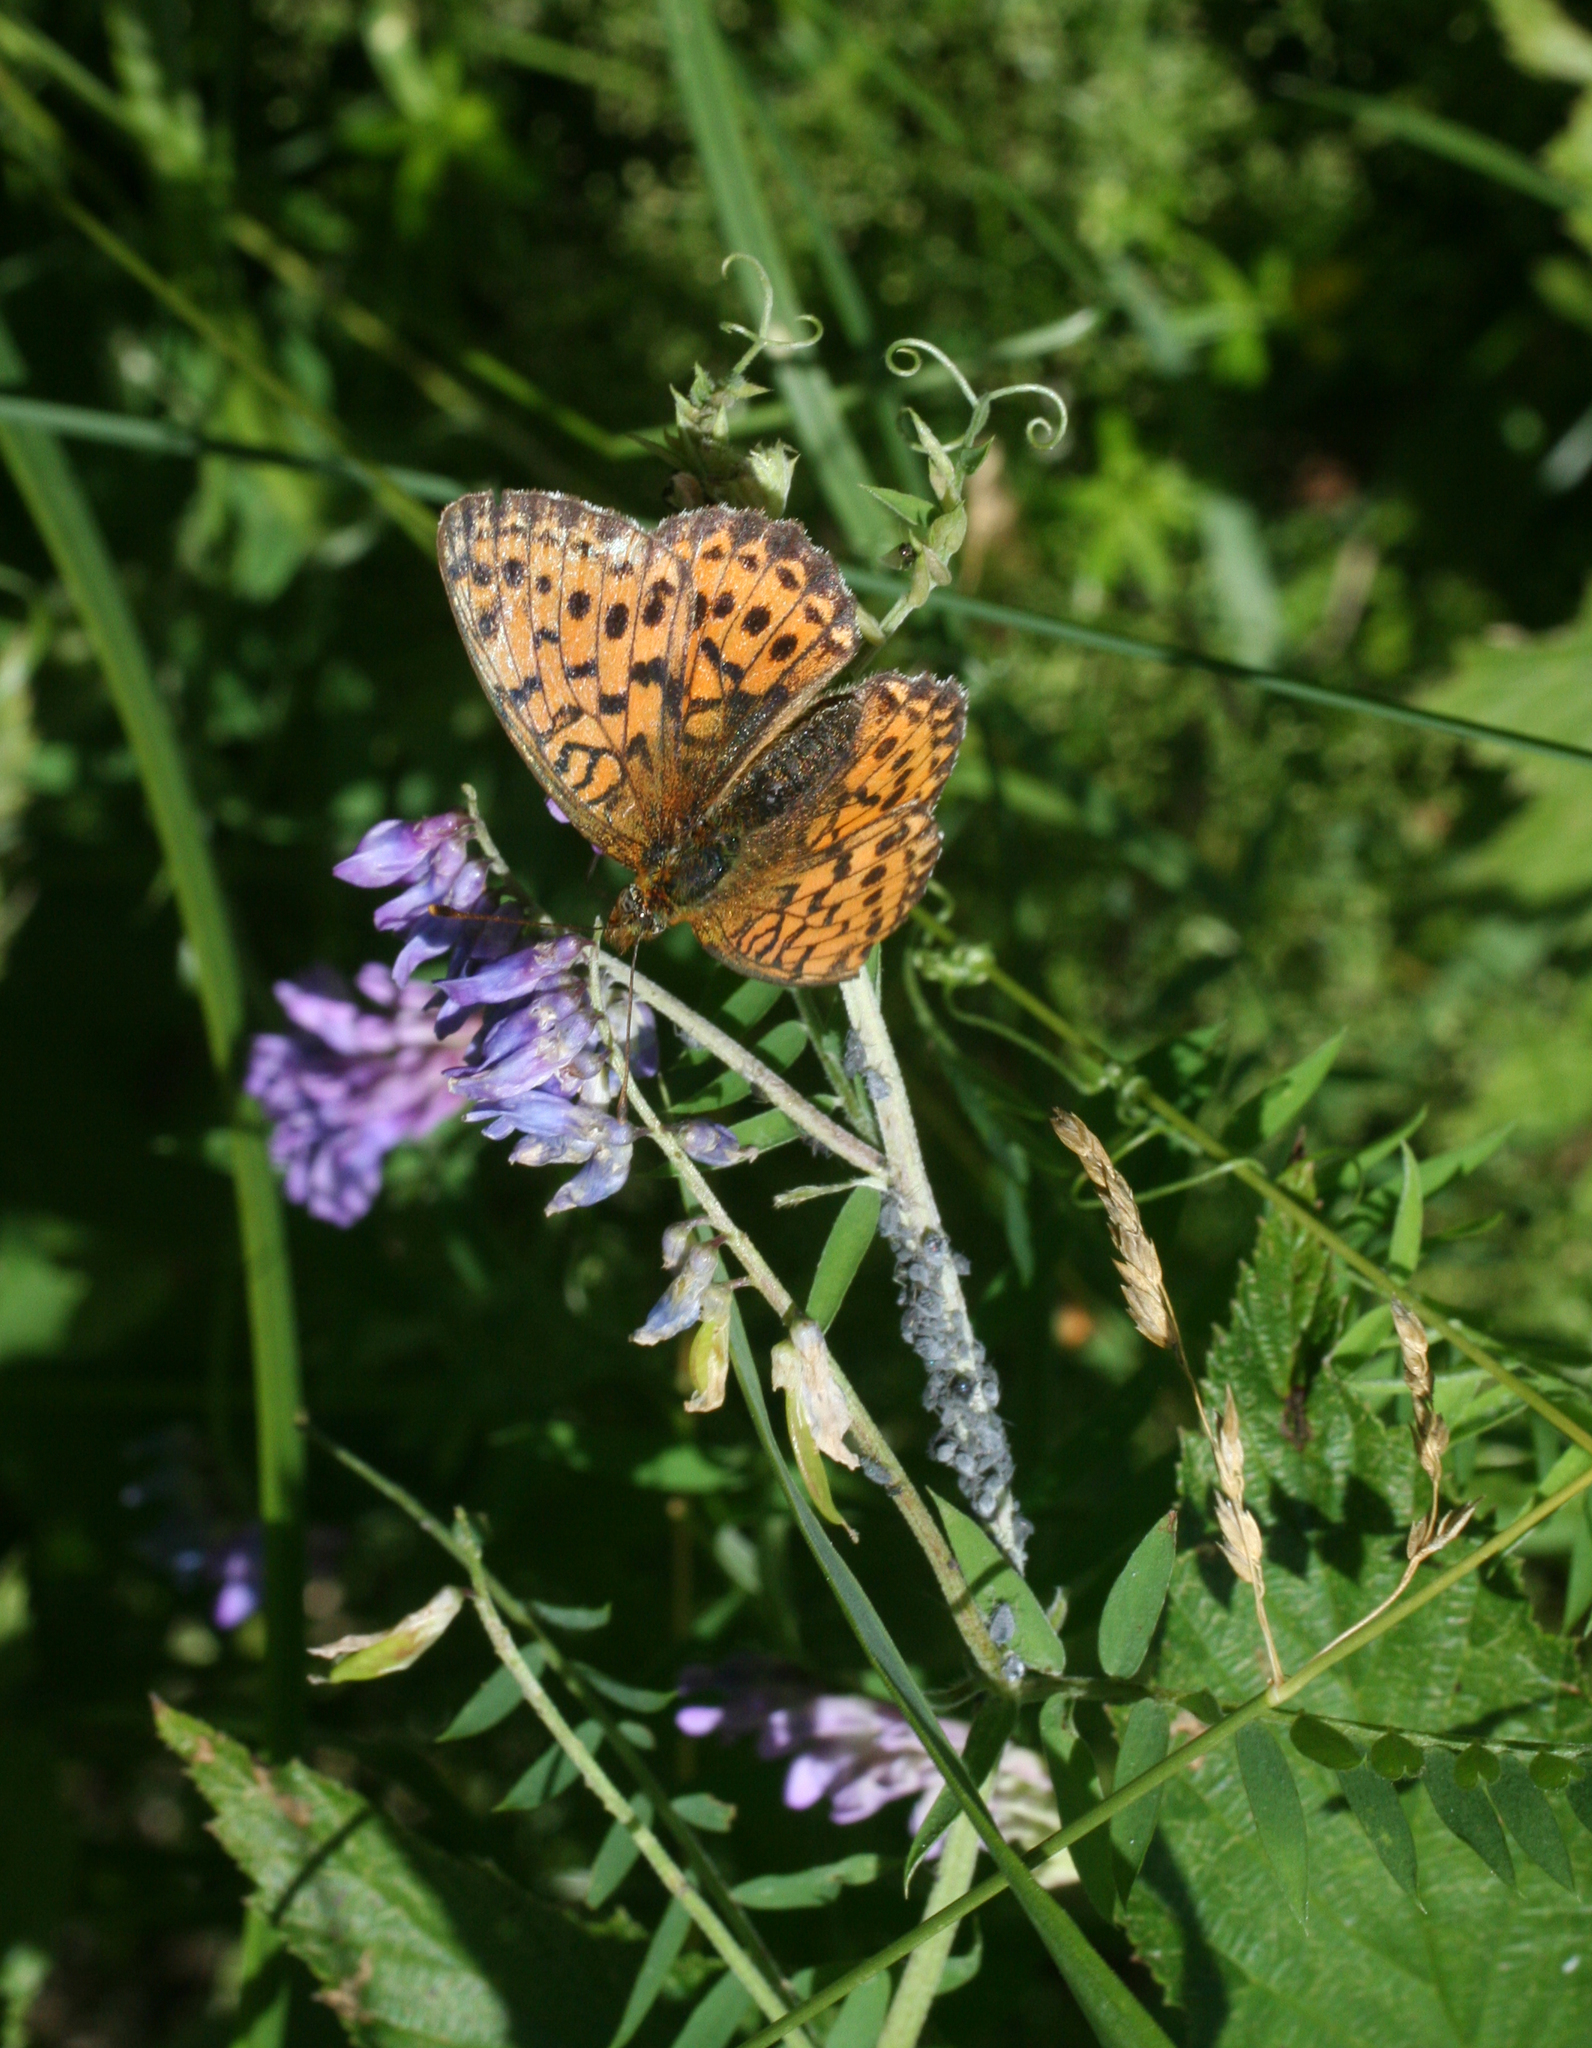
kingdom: Animalia
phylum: Arthropoda
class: Insecta
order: Lepidoptera
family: Nymphalidae
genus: Brenthis
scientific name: Brenthis ino
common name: Lesser marbled fritillary
